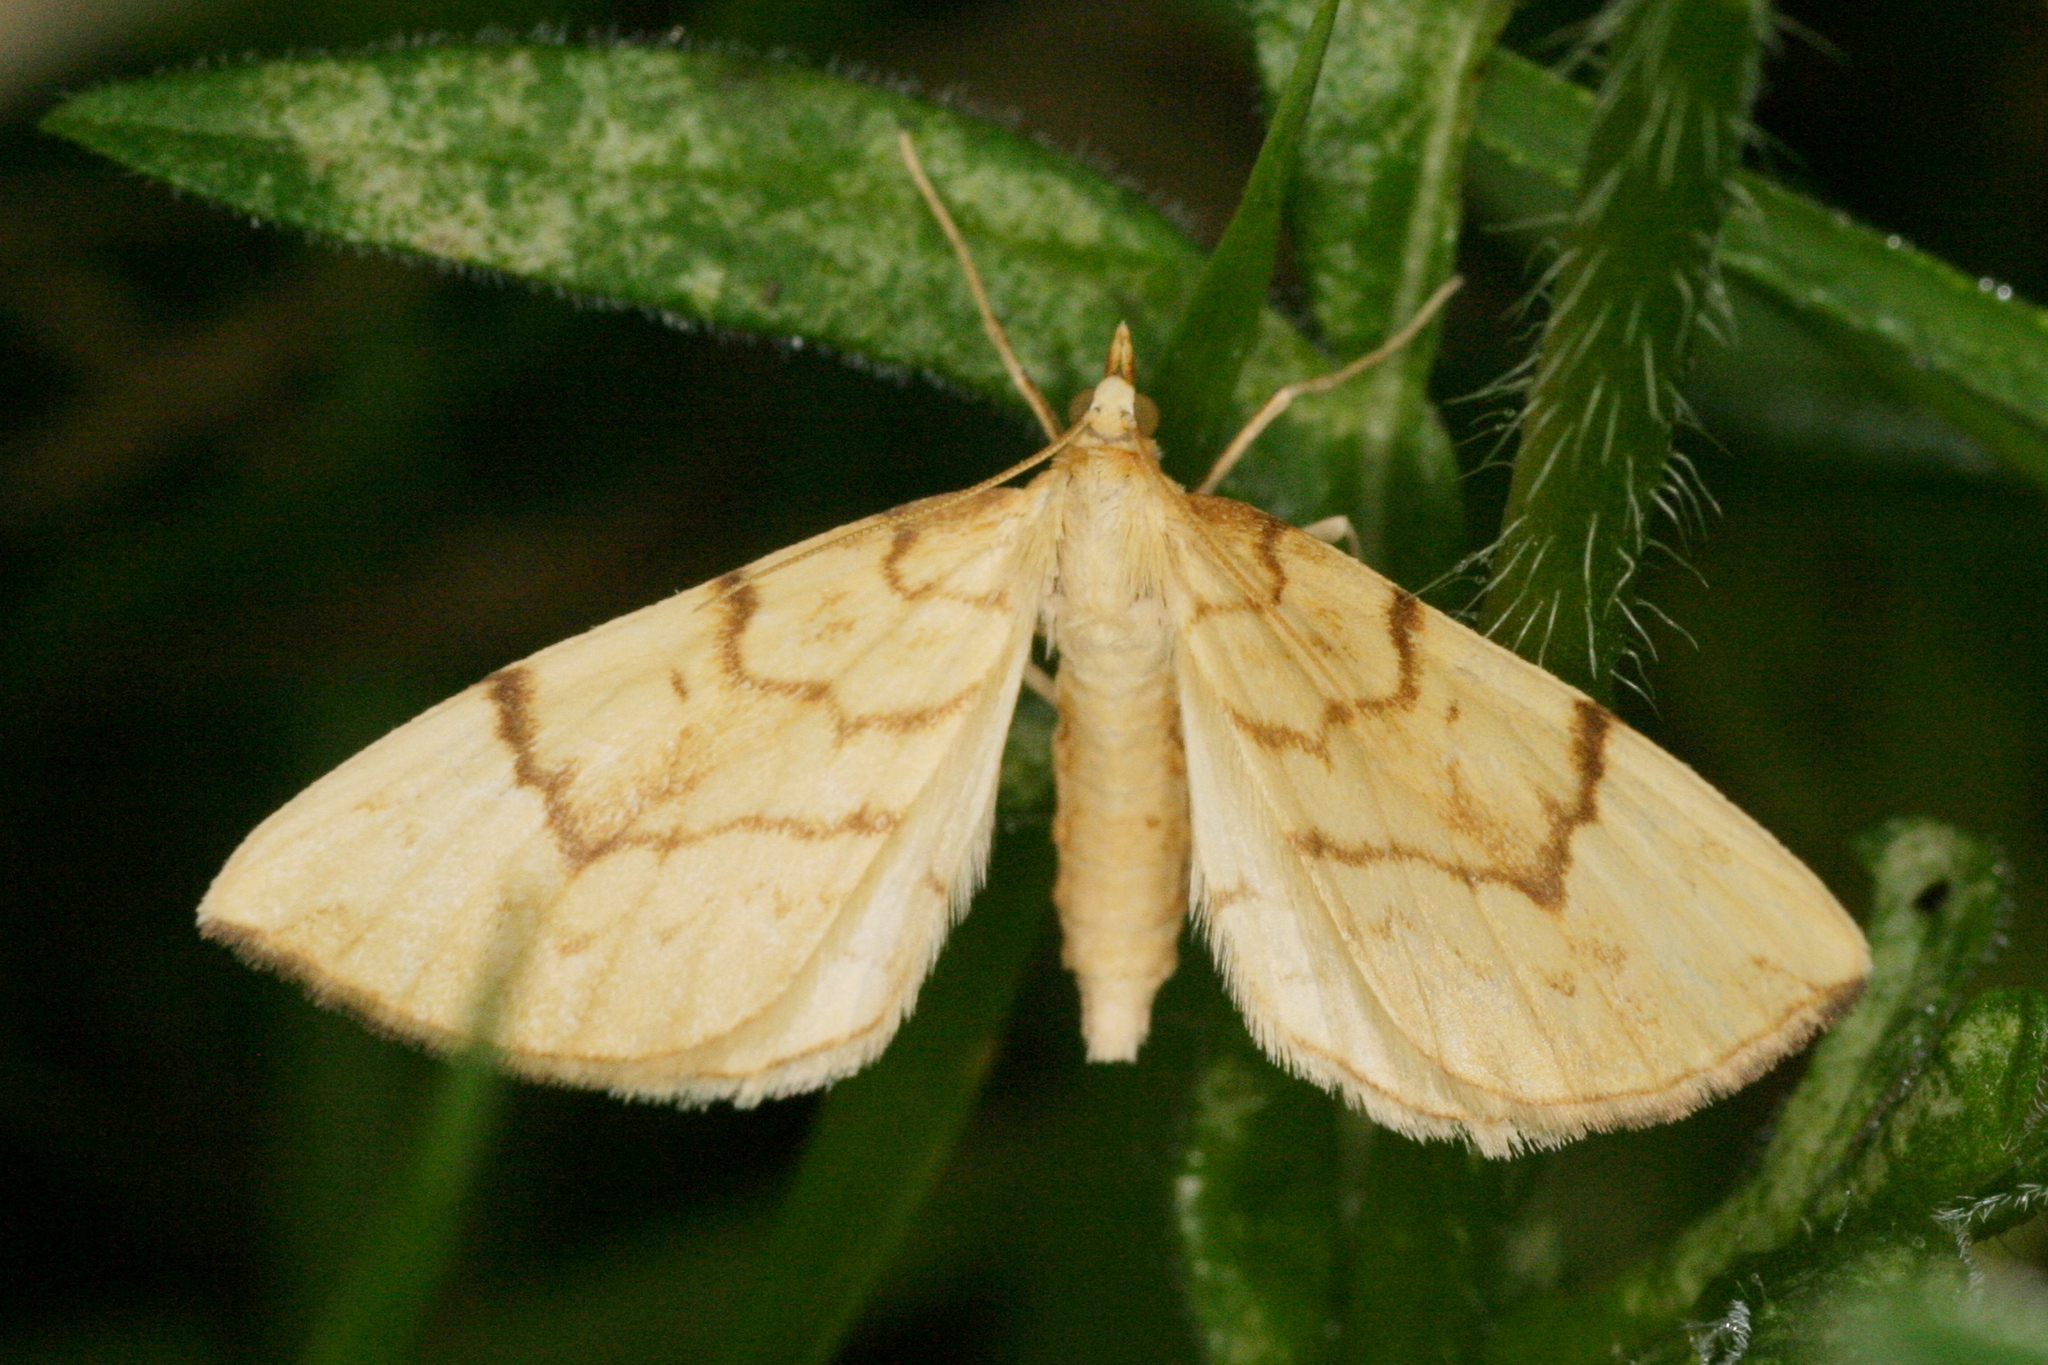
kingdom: Animalia
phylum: Arthropoda
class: Insecta
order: Lepidoptera
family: Geometridae
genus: Eulithis
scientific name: Eulithis pyraliata
